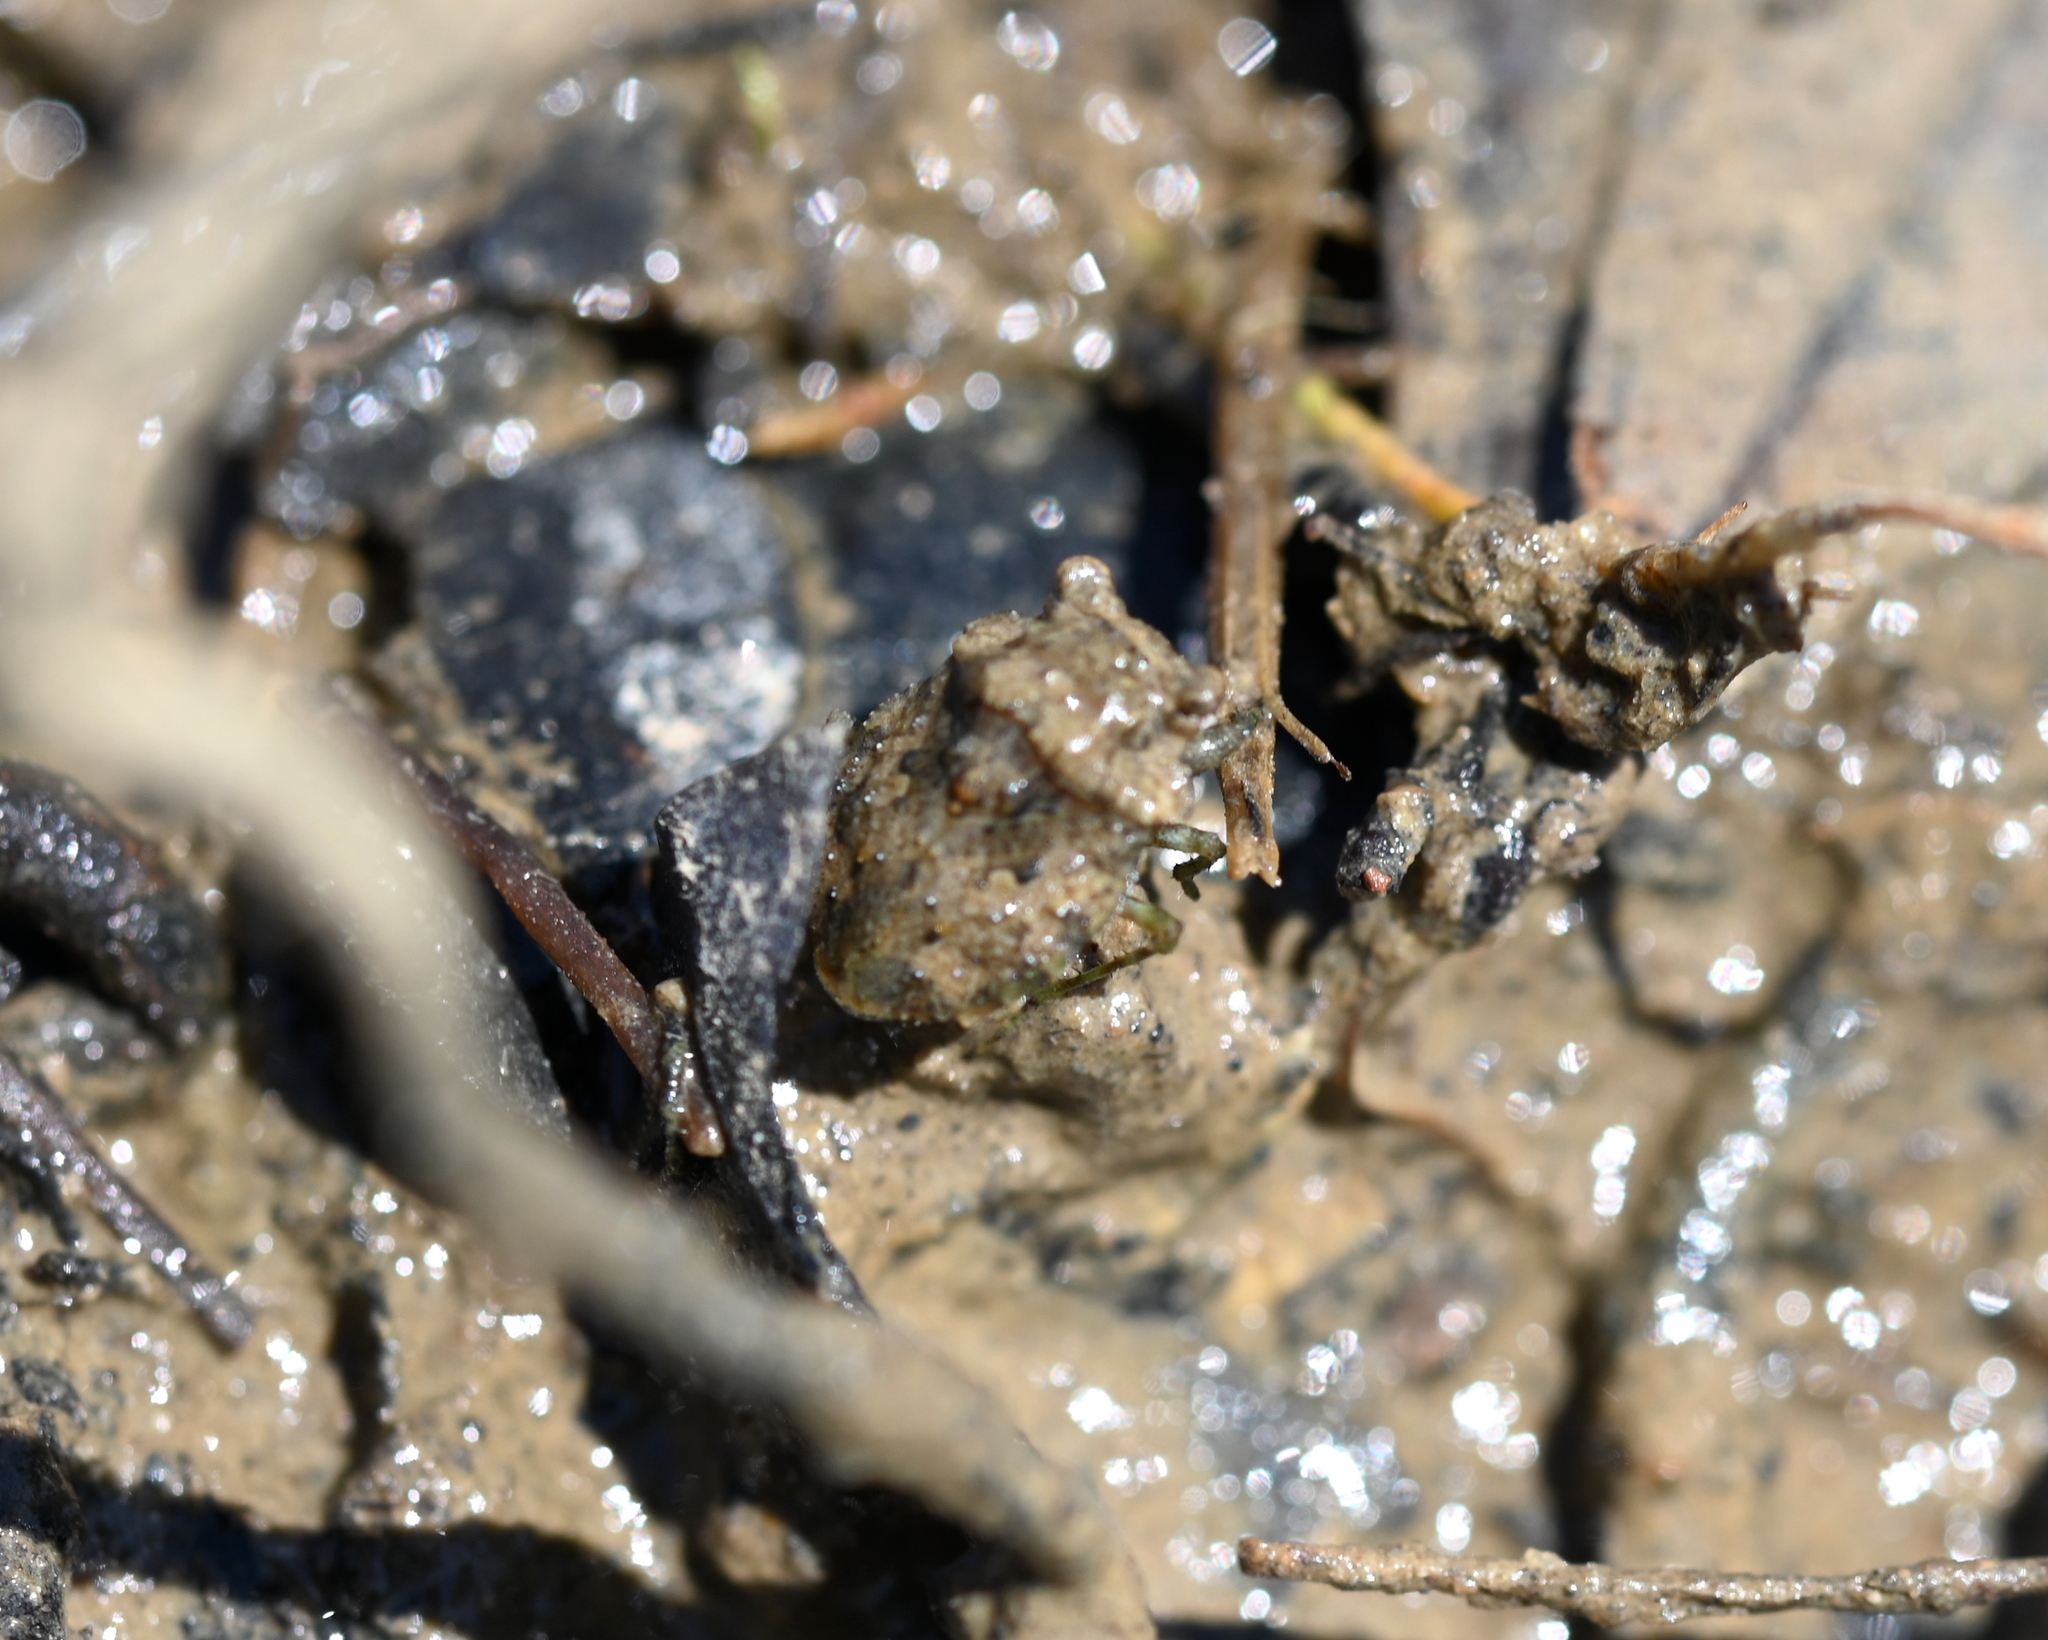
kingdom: Animalia
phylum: Arthropoda
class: Insecta
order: Hemiptera
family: Gelastocoridae
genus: Gelastocoris
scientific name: Gelastocoris oculatus
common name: Toad bug
